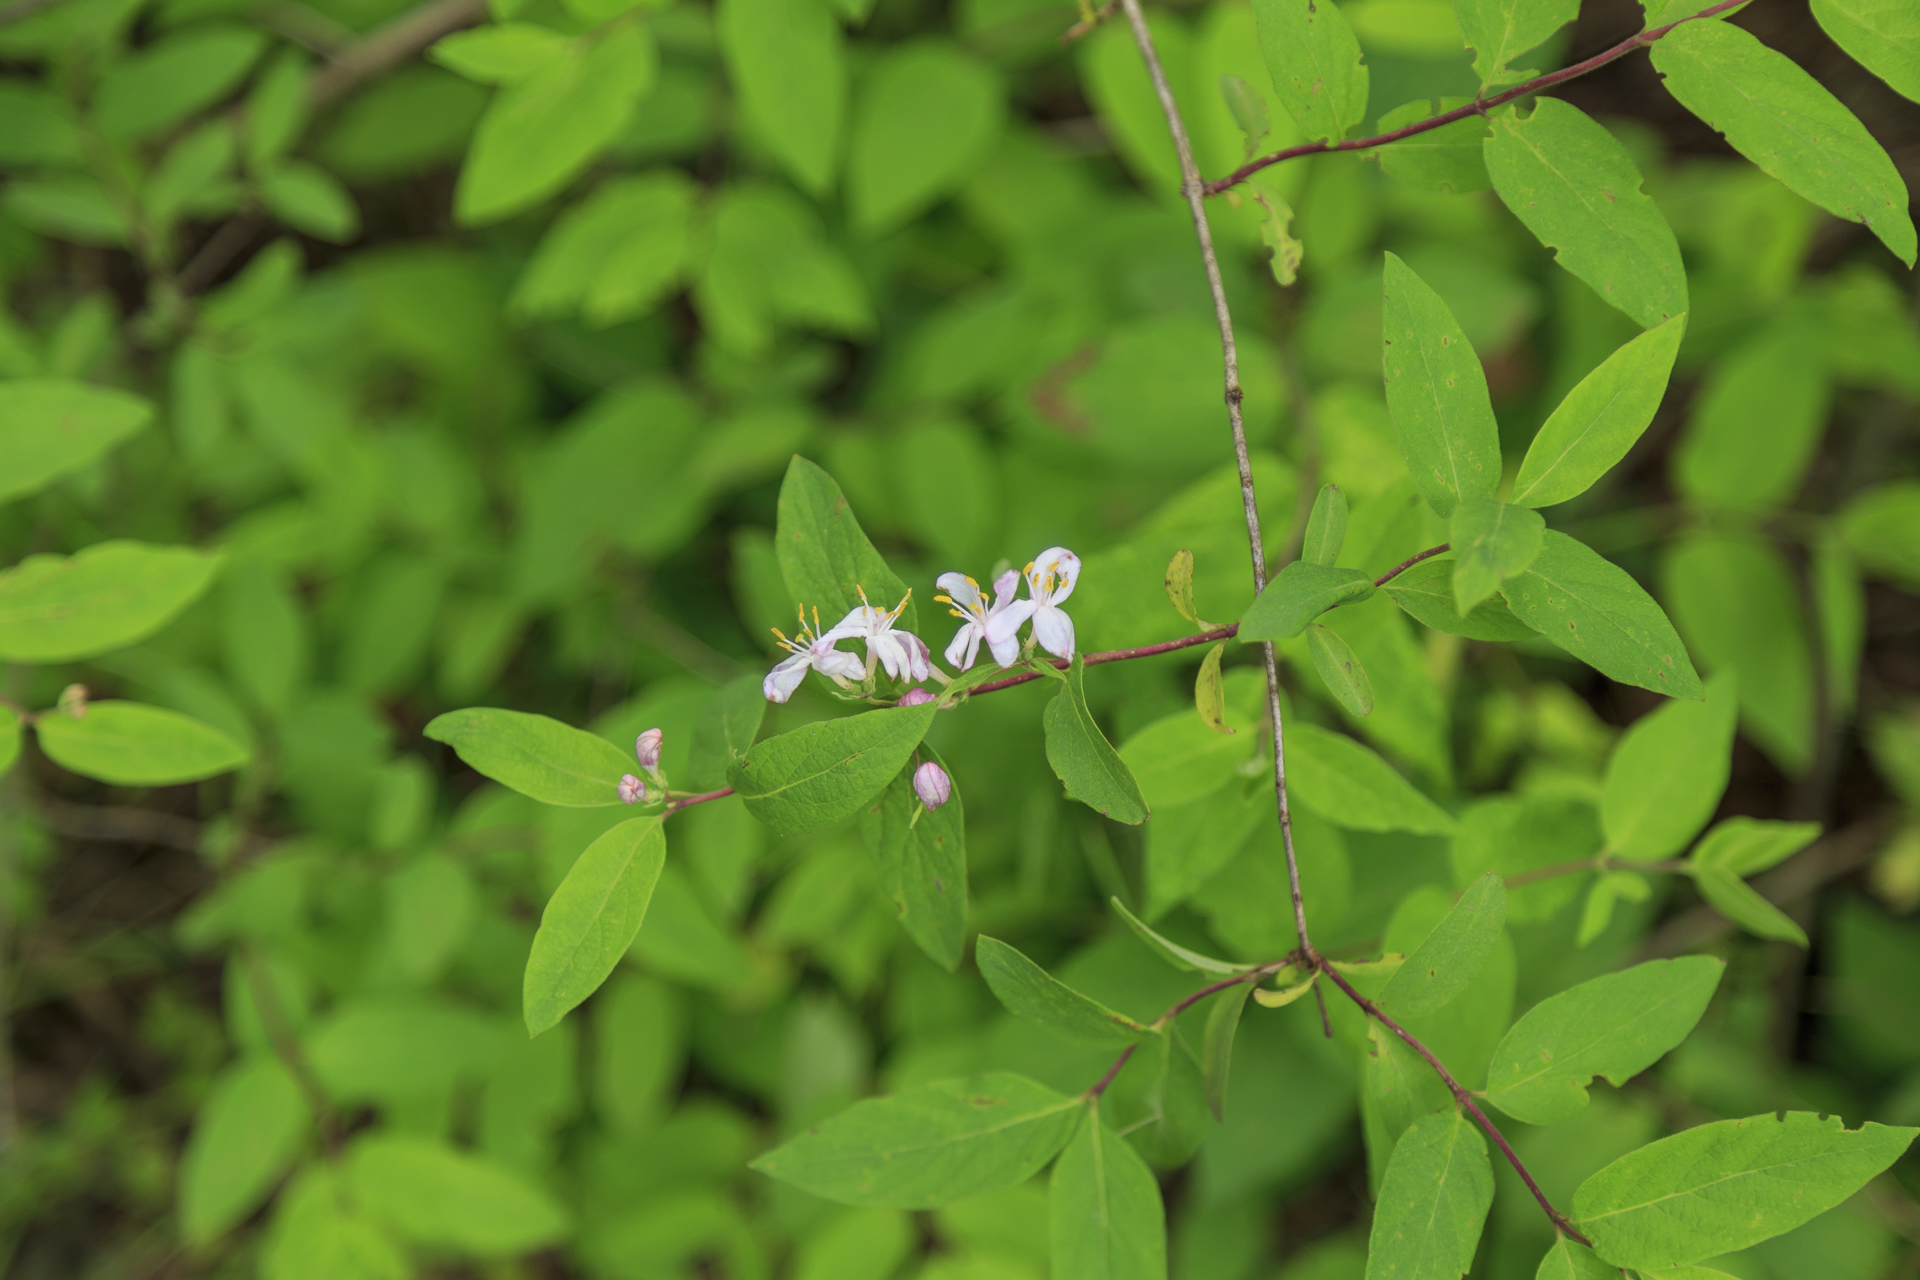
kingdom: Plantae
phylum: Tracheophyta
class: Magnoliopsida
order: Dipsacales
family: Caprifoliaceae
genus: Lonicera
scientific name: Lonicera tatarica
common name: Tatarian honeysuckle
